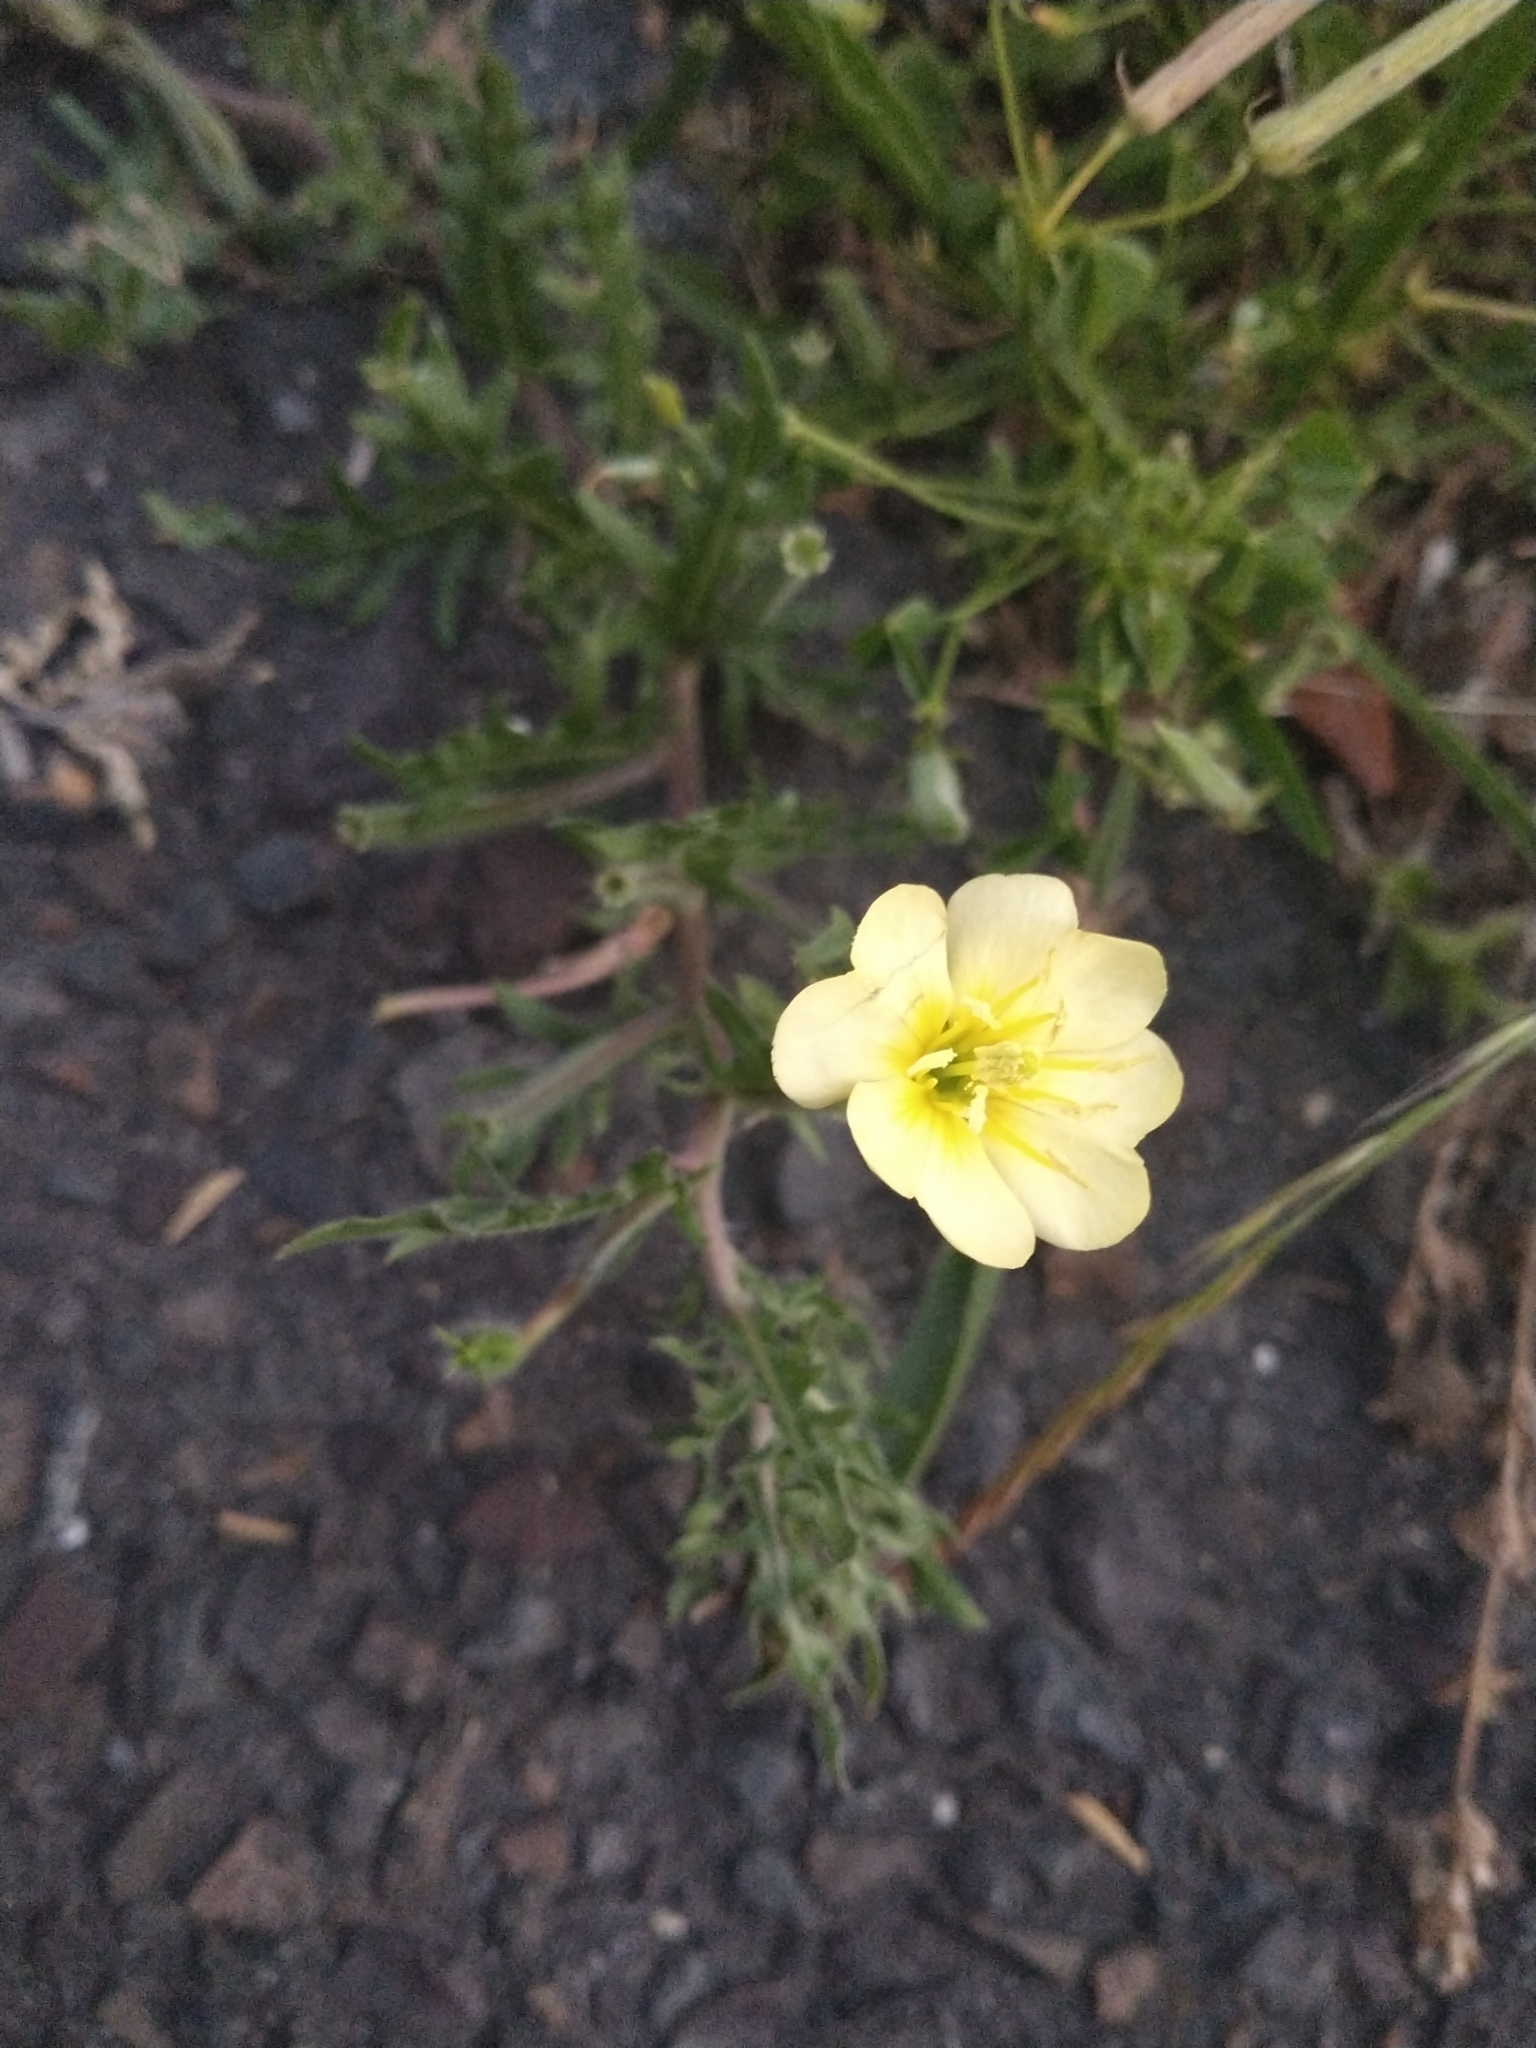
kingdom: Plantae
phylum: Tracheophyta
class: Magnoliopsida
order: Myrtales
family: Onagraceae
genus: Oenothera
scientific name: Oenothera laciniata
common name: Cut-leaved evening-primrose
